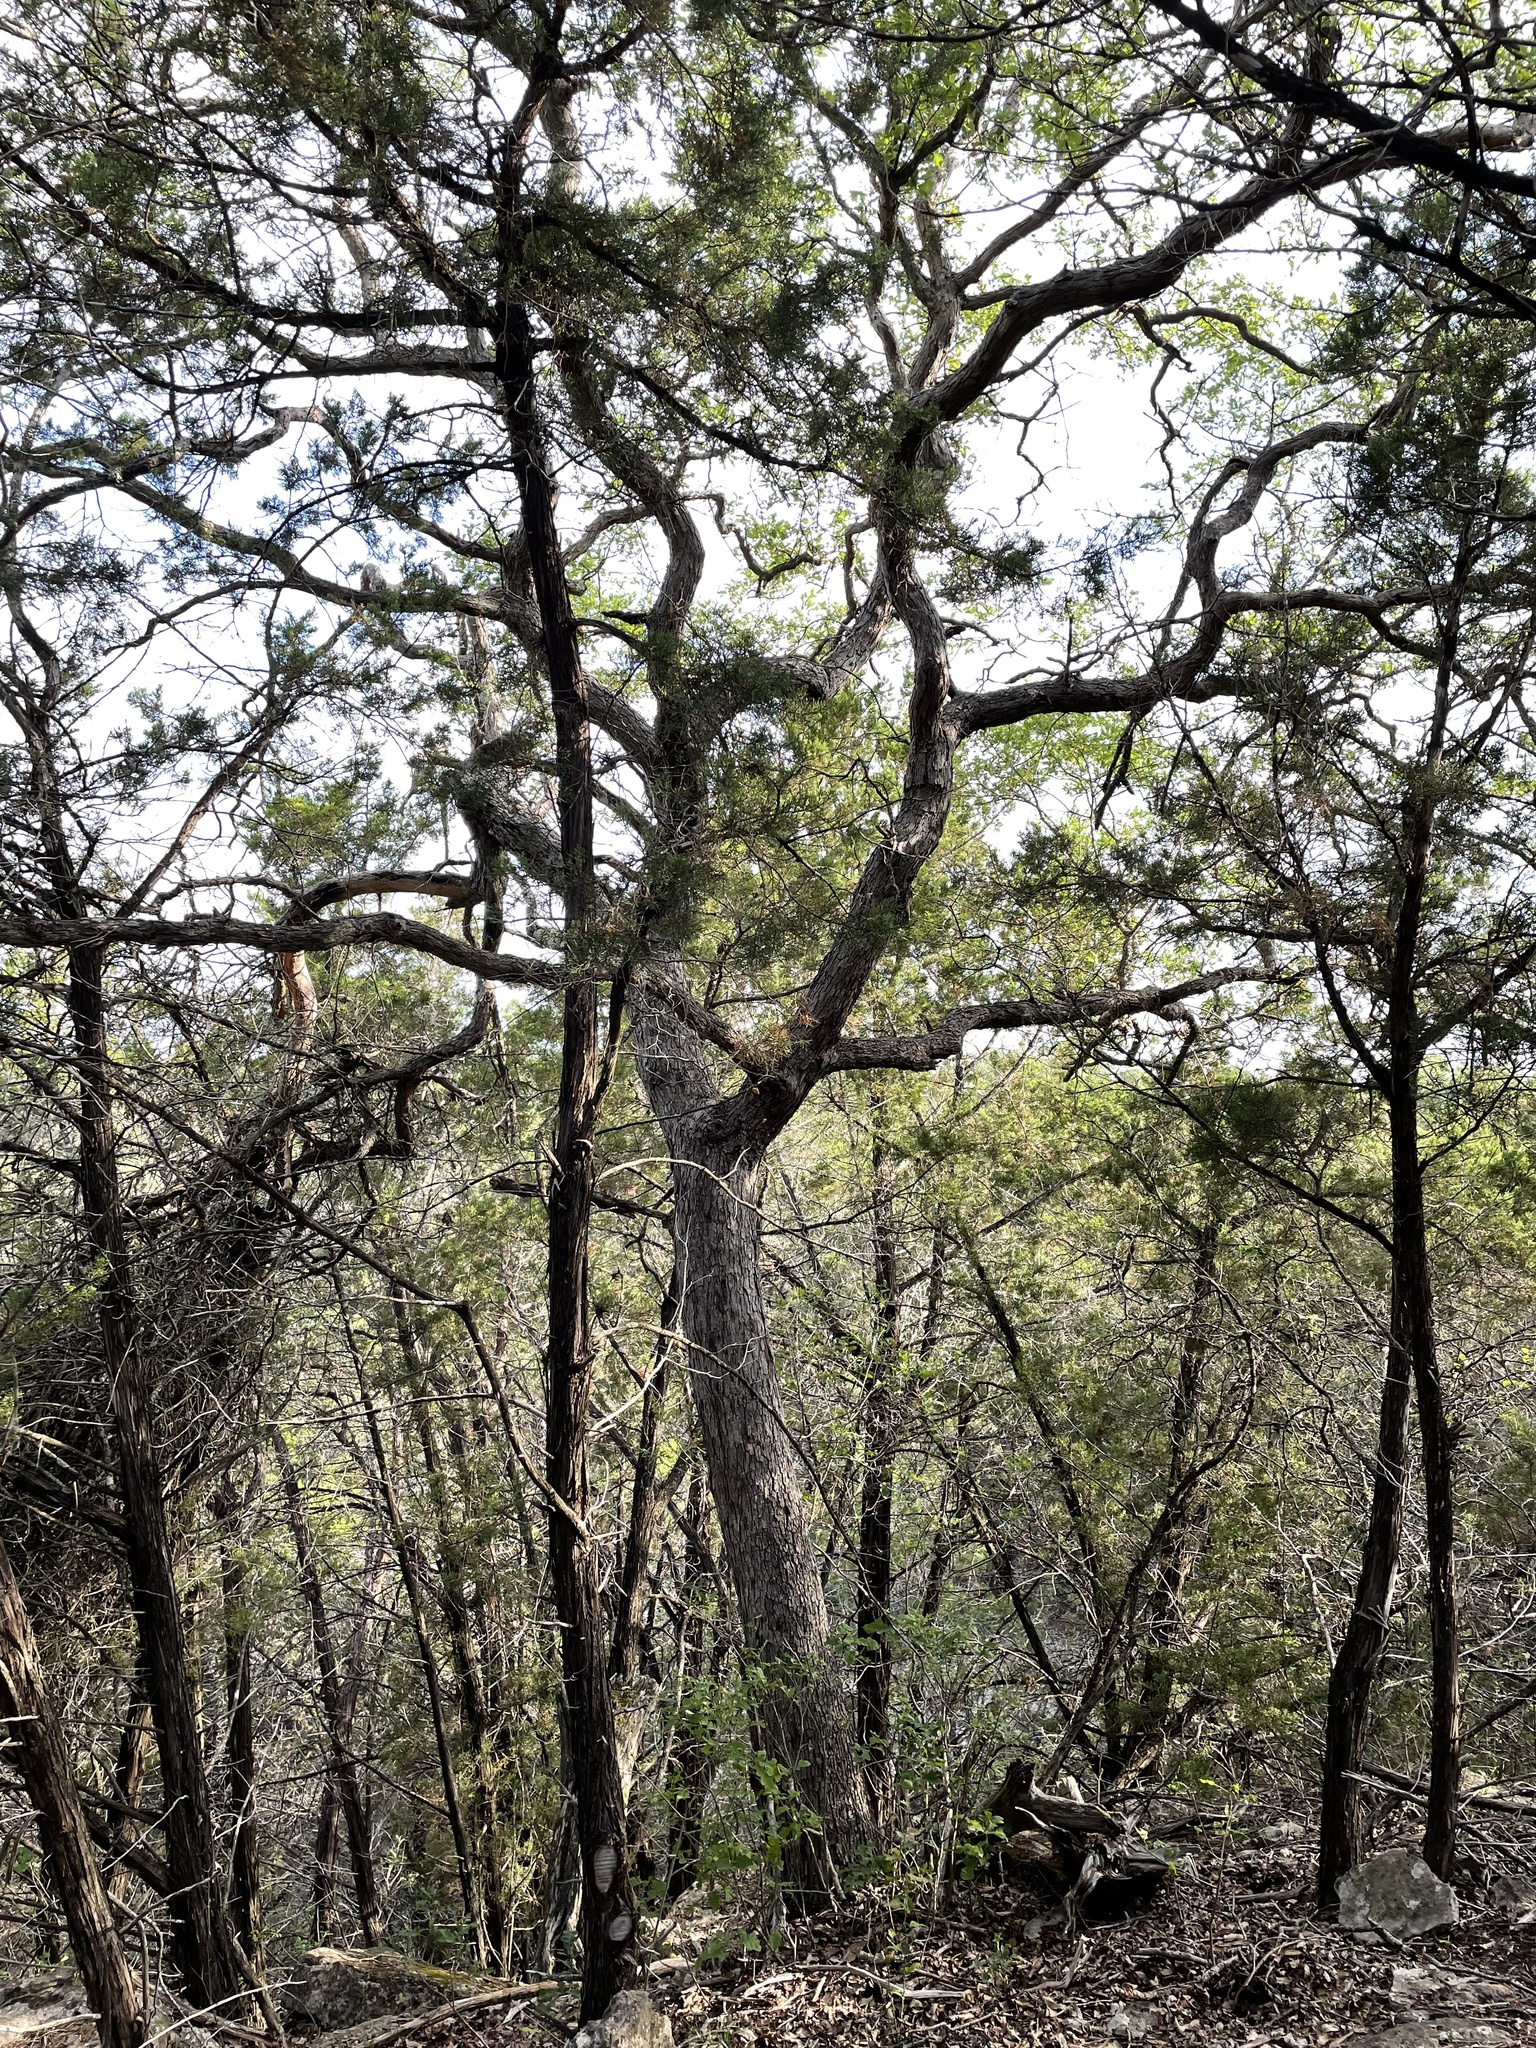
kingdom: Plantae
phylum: Tracheophyta
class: Magnoliopsida
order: Fagales
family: Fagaceae
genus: Quercus
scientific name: Quercus sinuata
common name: Durand oak
